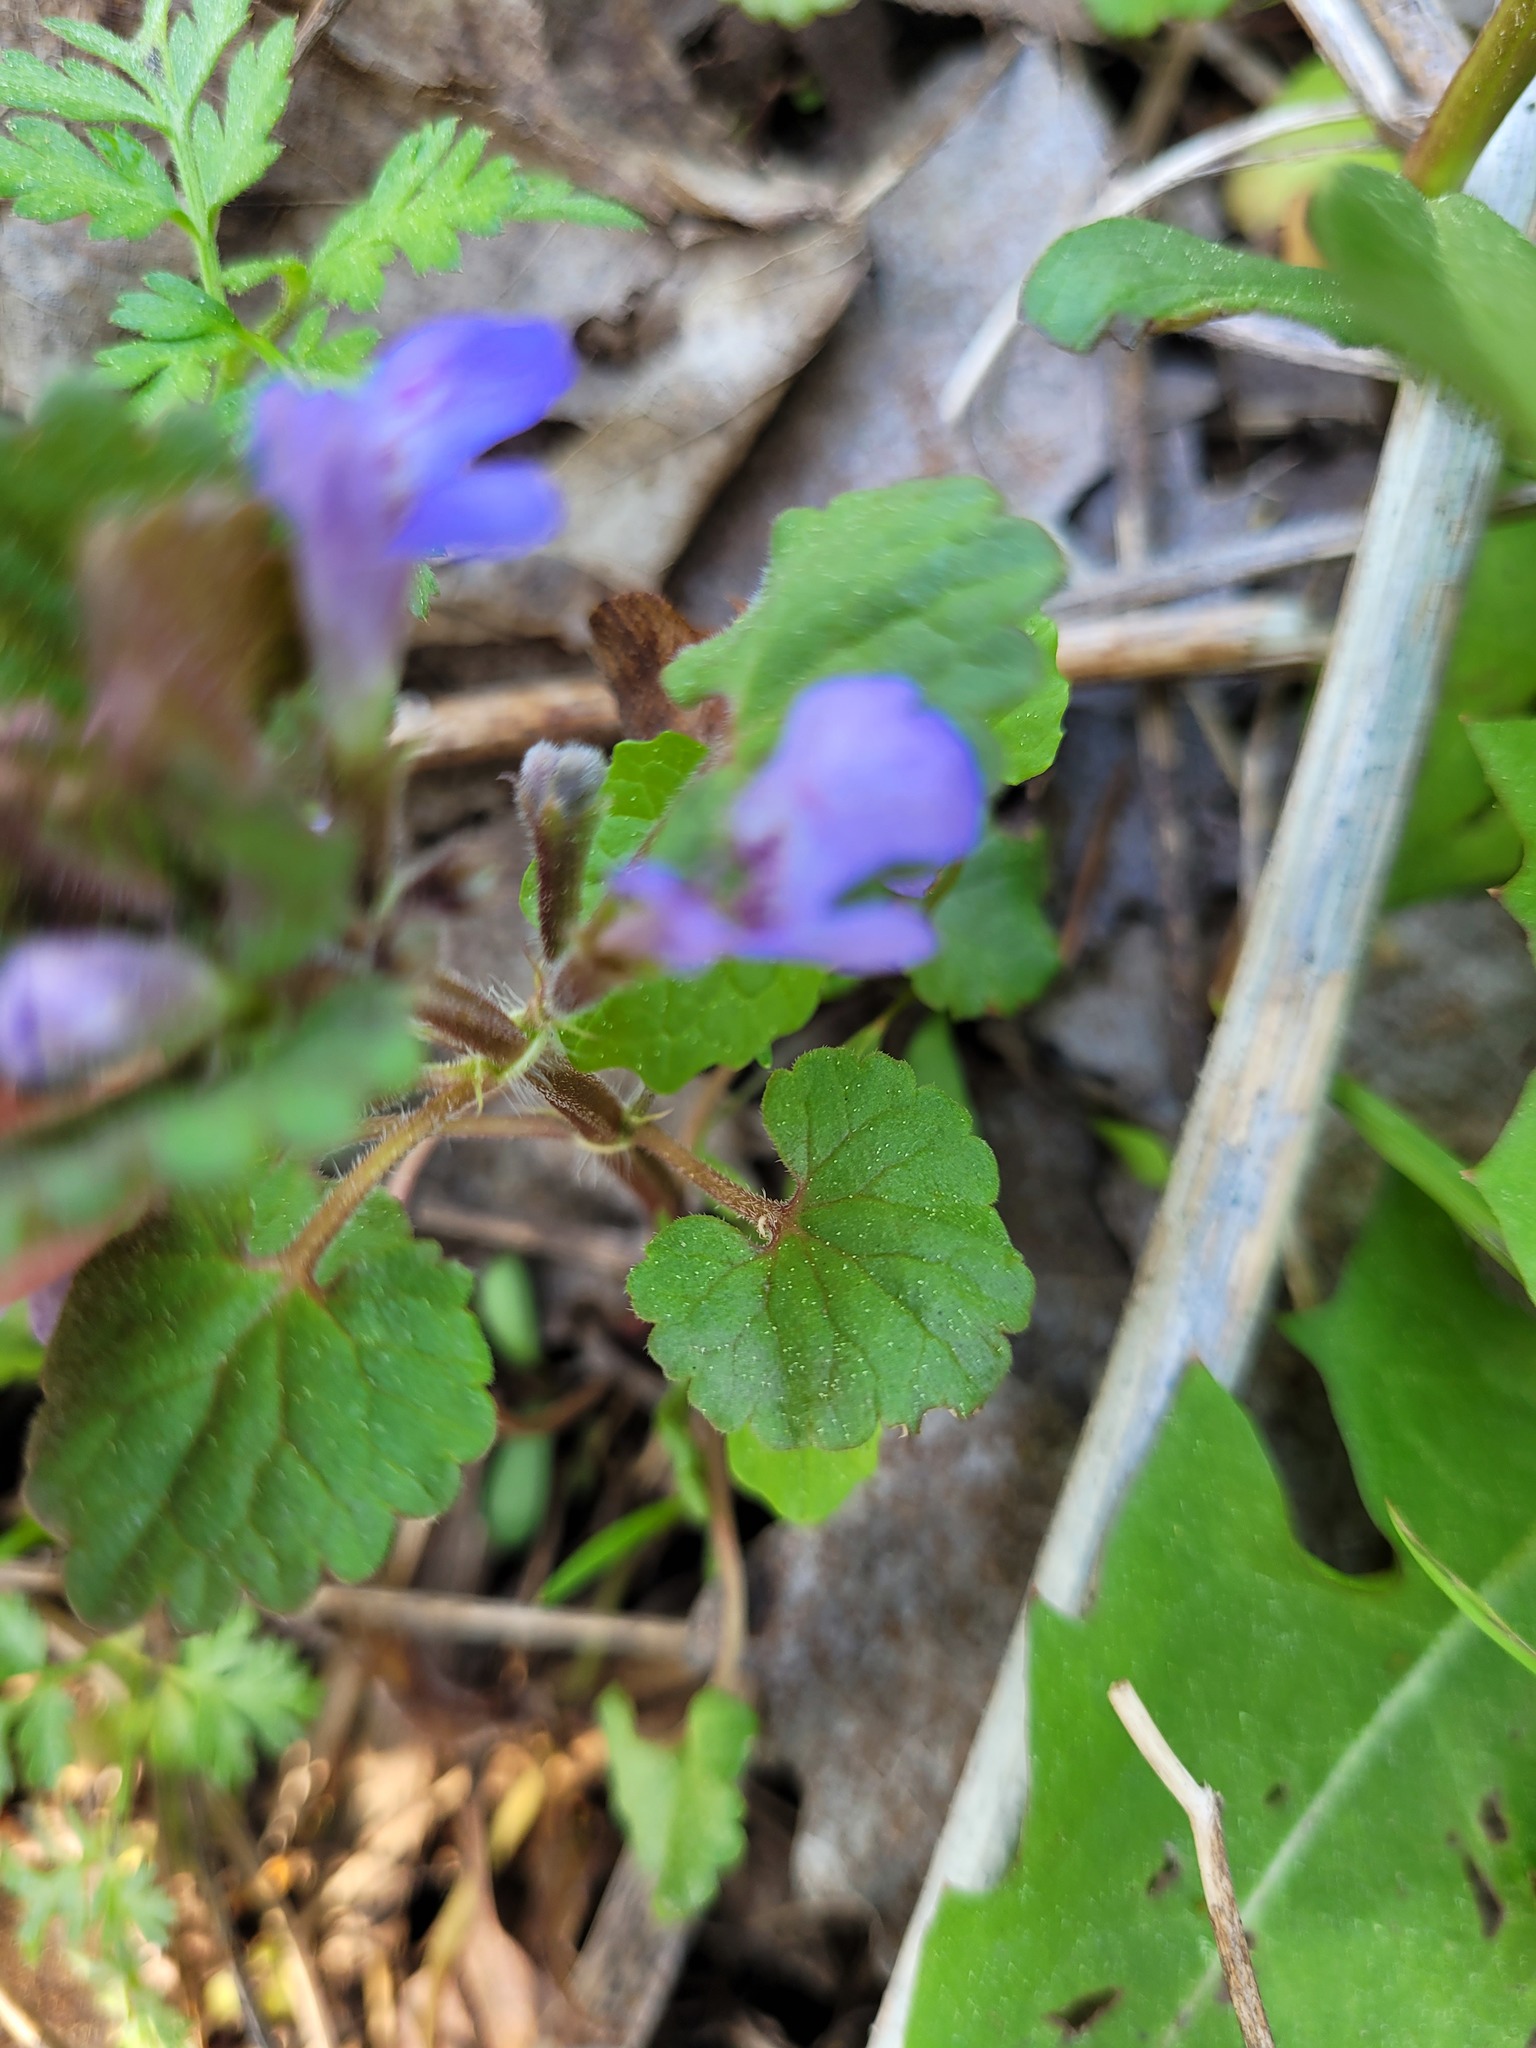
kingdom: Plantae
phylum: Tracheophyta
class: Magnoliopsida
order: Lamiales
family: Lamiaceae
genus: Glechoma
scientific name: Glechoma hederacea
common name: Ground ivy
